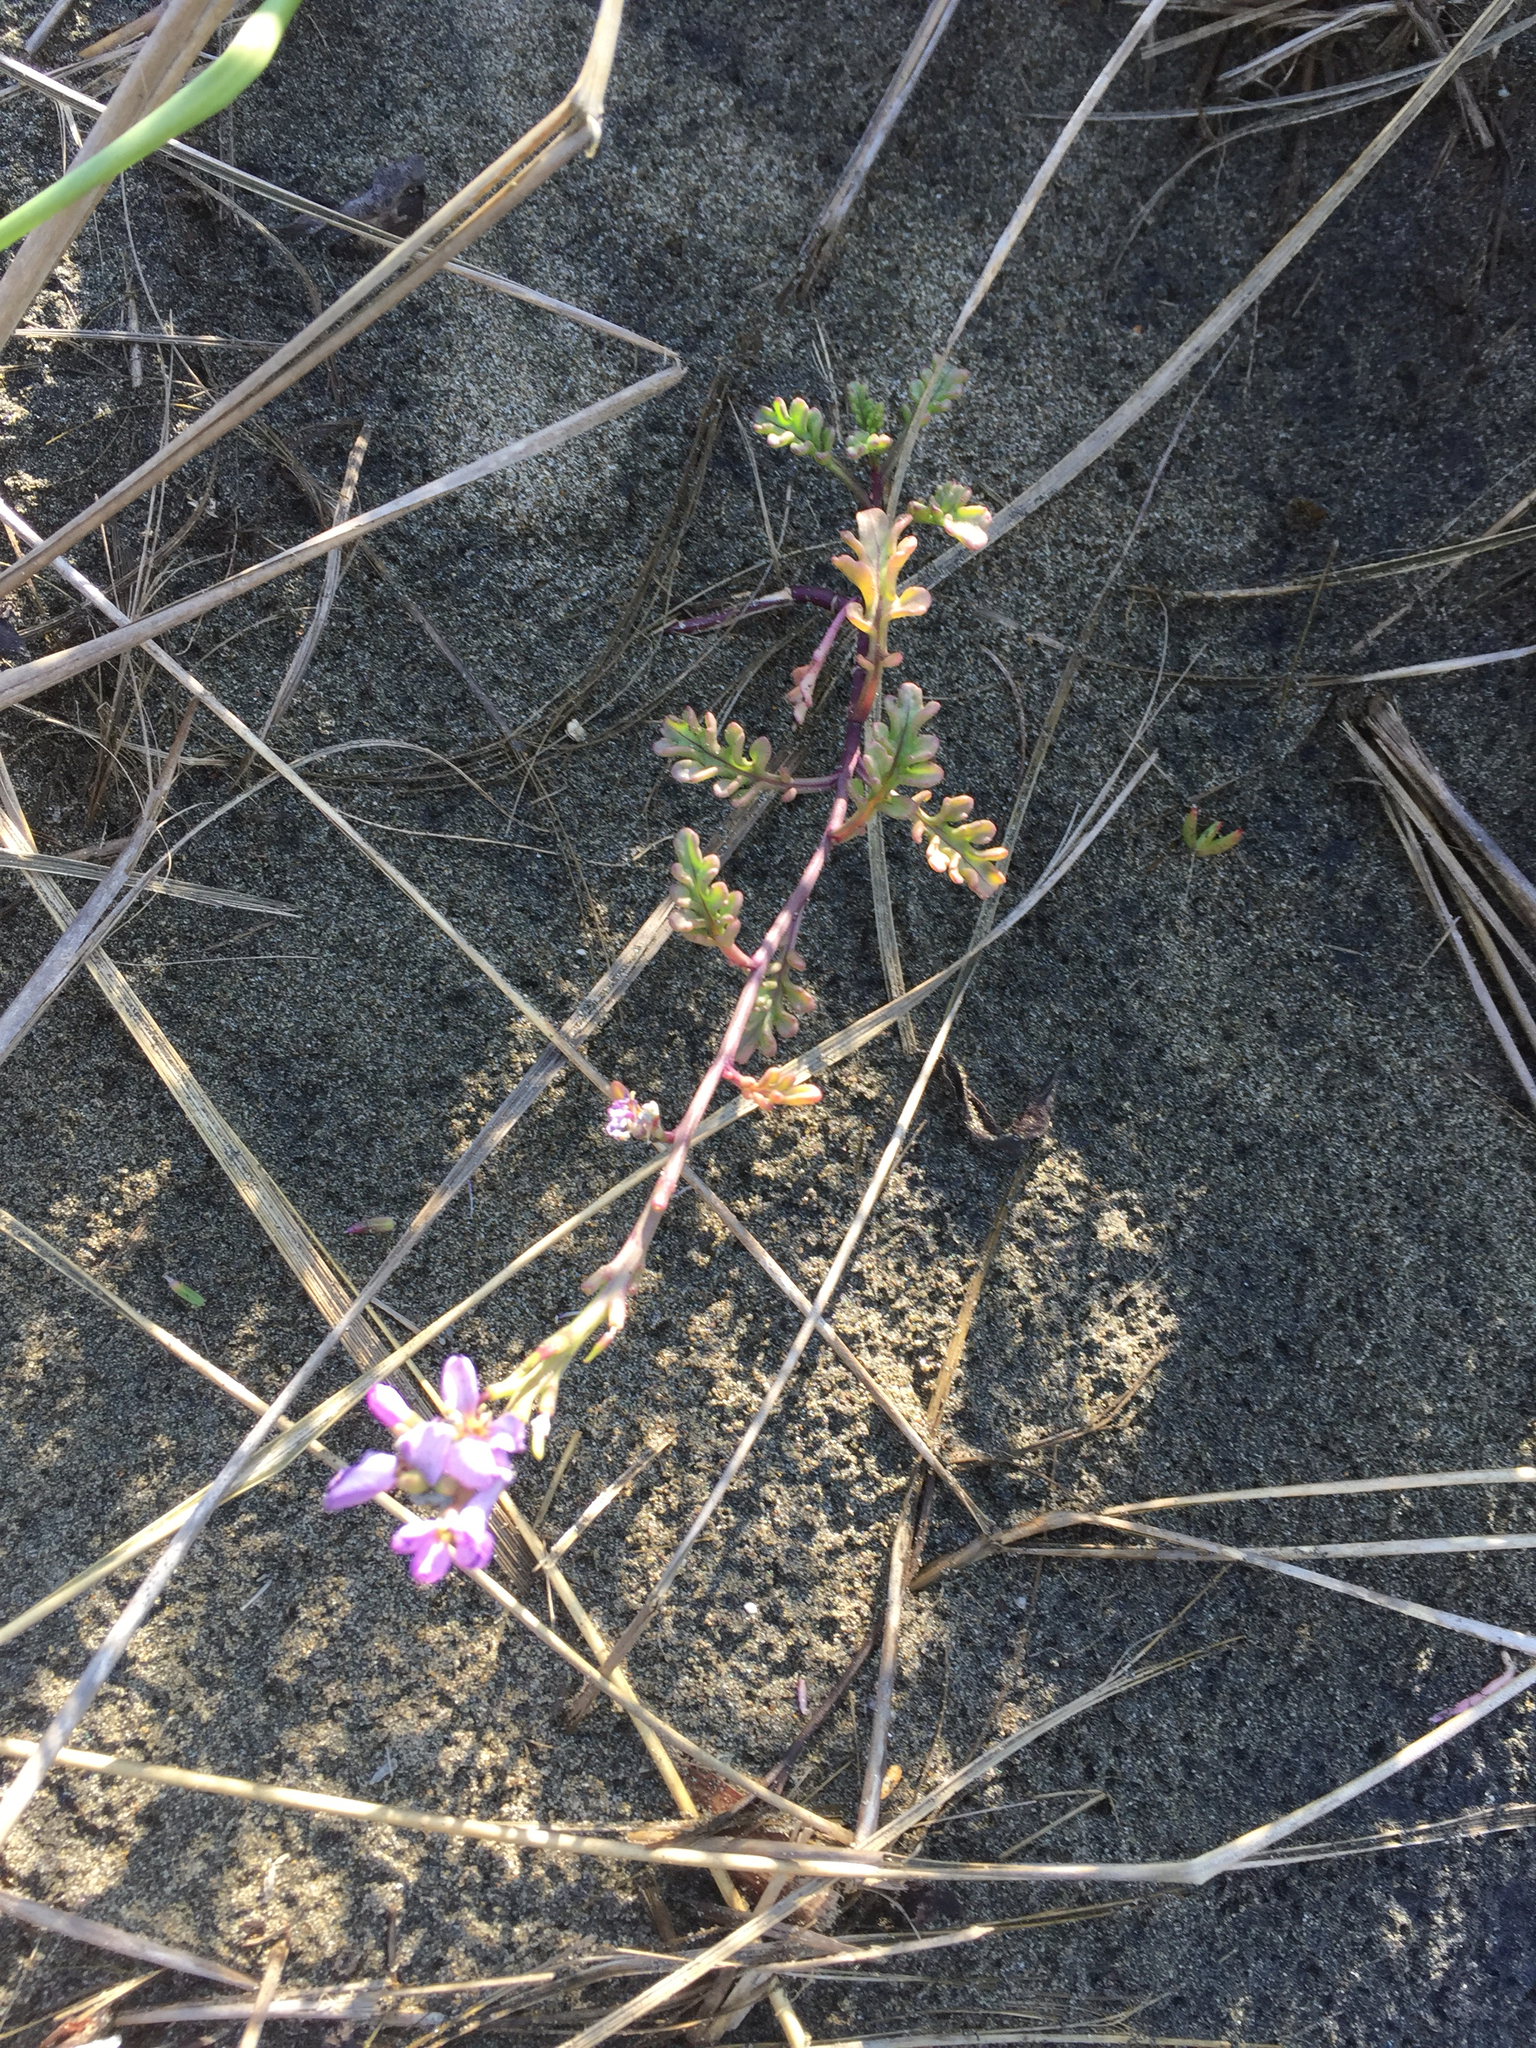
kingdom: Plantae
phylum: Tracheophyta
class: Magnoliopsida
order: Brassicales
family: Brassicaceae
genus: Cakile
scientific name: Cakile maritima
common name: Sea rocket
